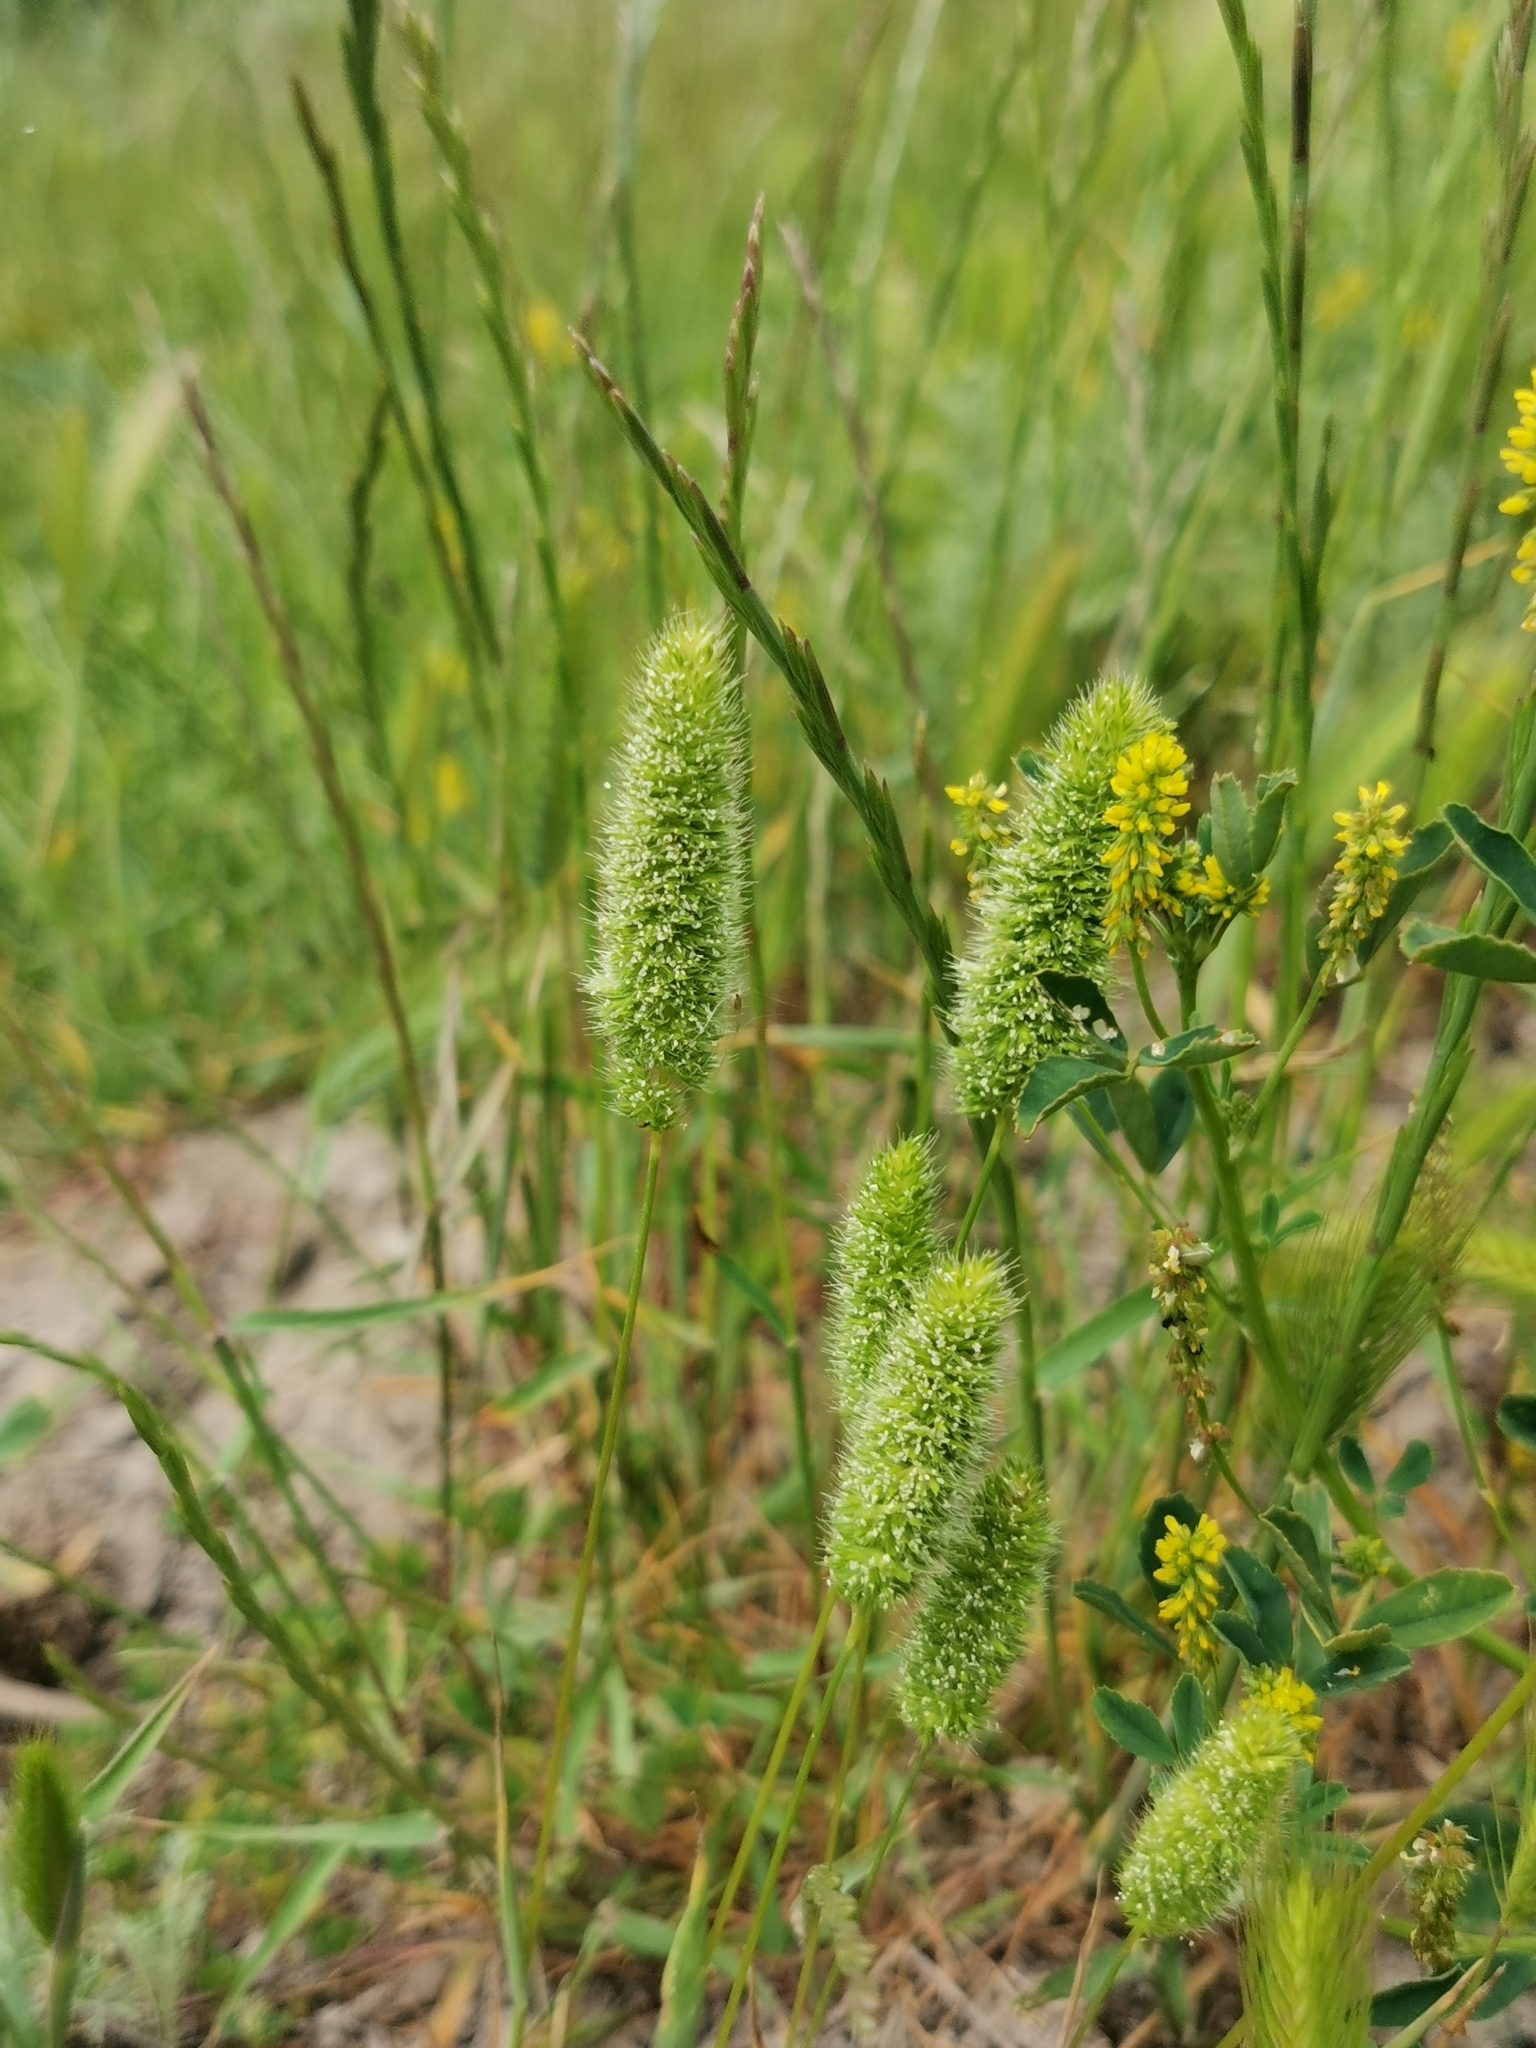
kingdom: Plantae
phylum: Tracheophyta
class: Liliopsida
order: Poales
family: Poaceae
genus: Rostraria
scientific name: Rostraria cristata
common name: Mediterranean hair-grass
